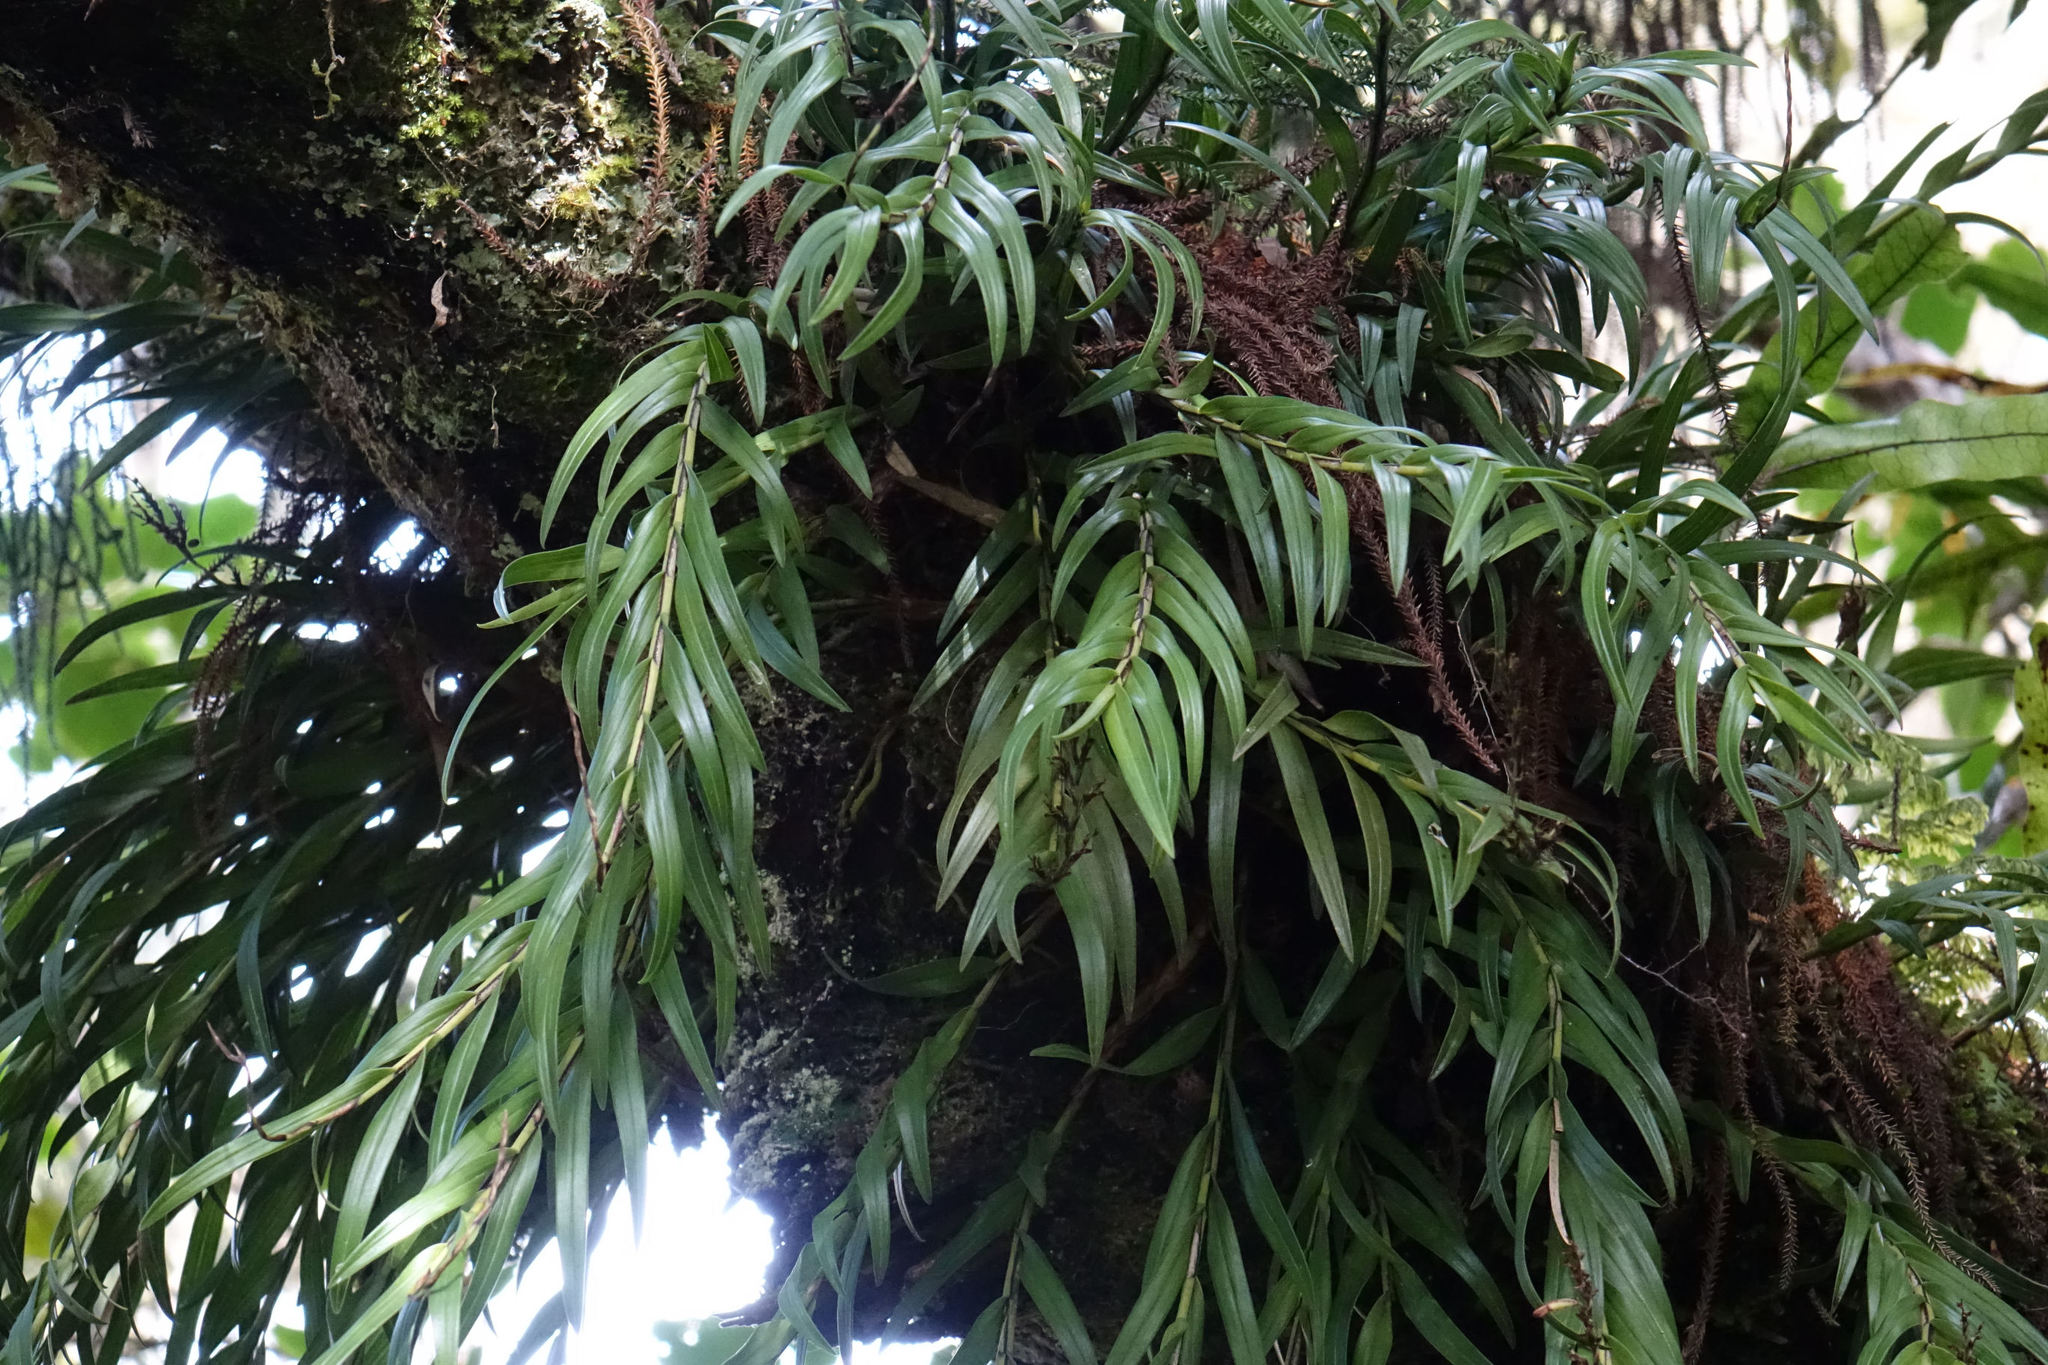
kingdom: Plantae
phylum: Tracheophyta
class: Liliopsida
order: Asparagales
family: Orchidaceae
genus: Earina
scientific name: Earina autumnalis
